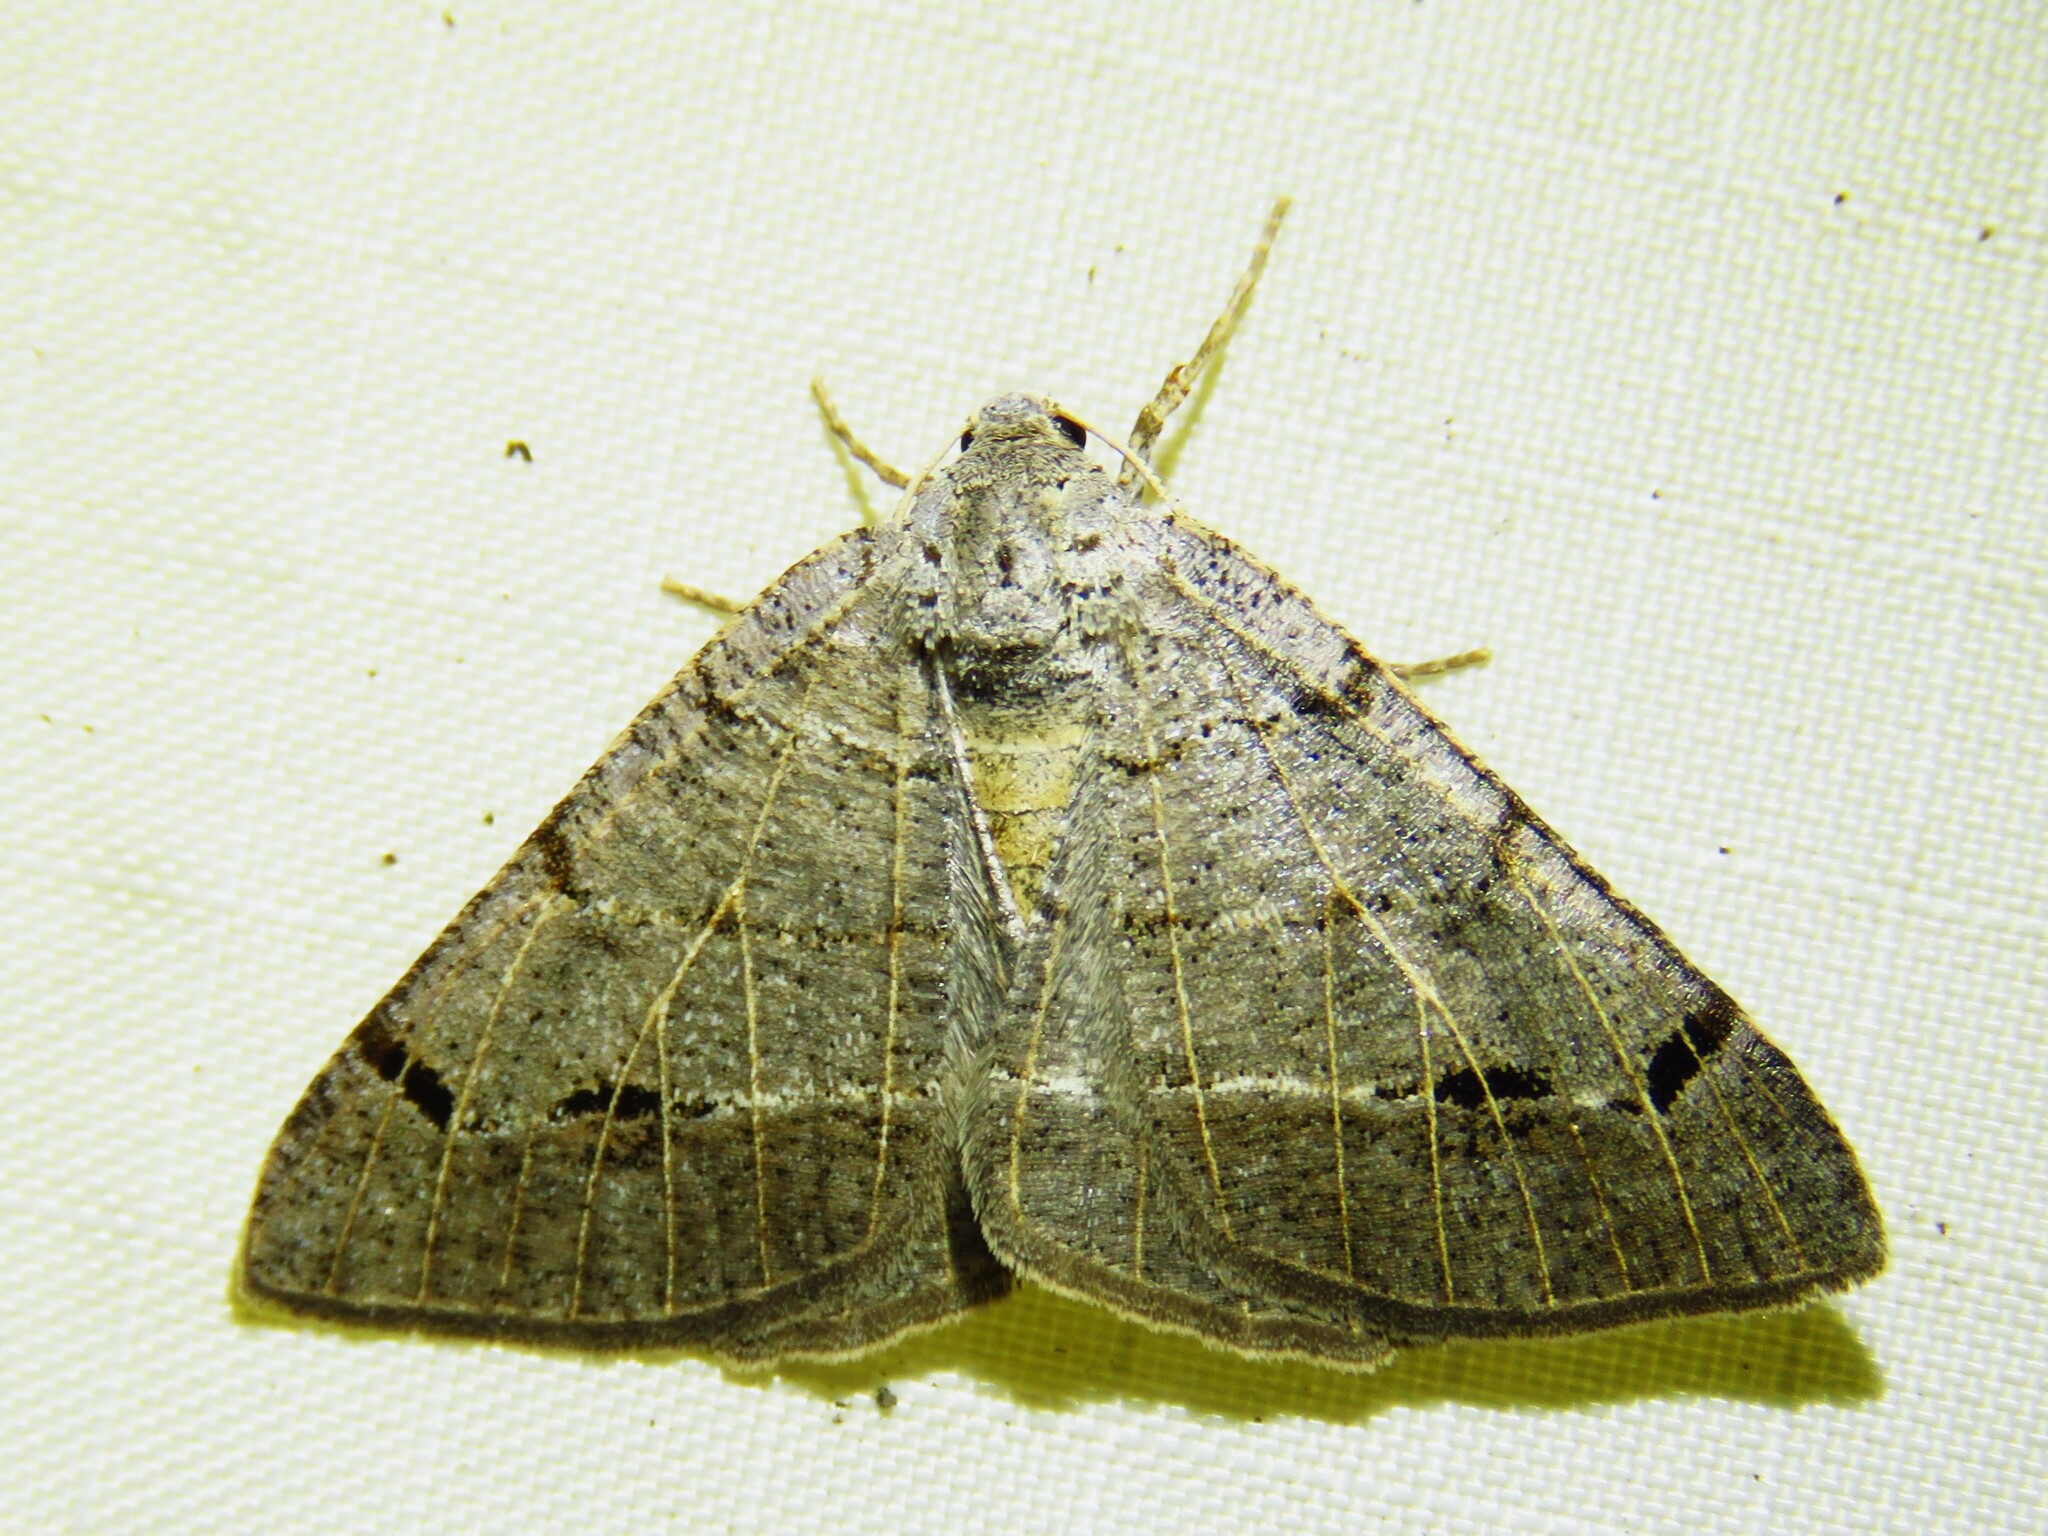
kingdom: Animalia
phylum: Arthropoda
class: Insecta
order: Lepidoptera
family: Geometridae
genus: Isturgia
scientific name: Isturgia dislocaria
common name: Pale-viened enconista
